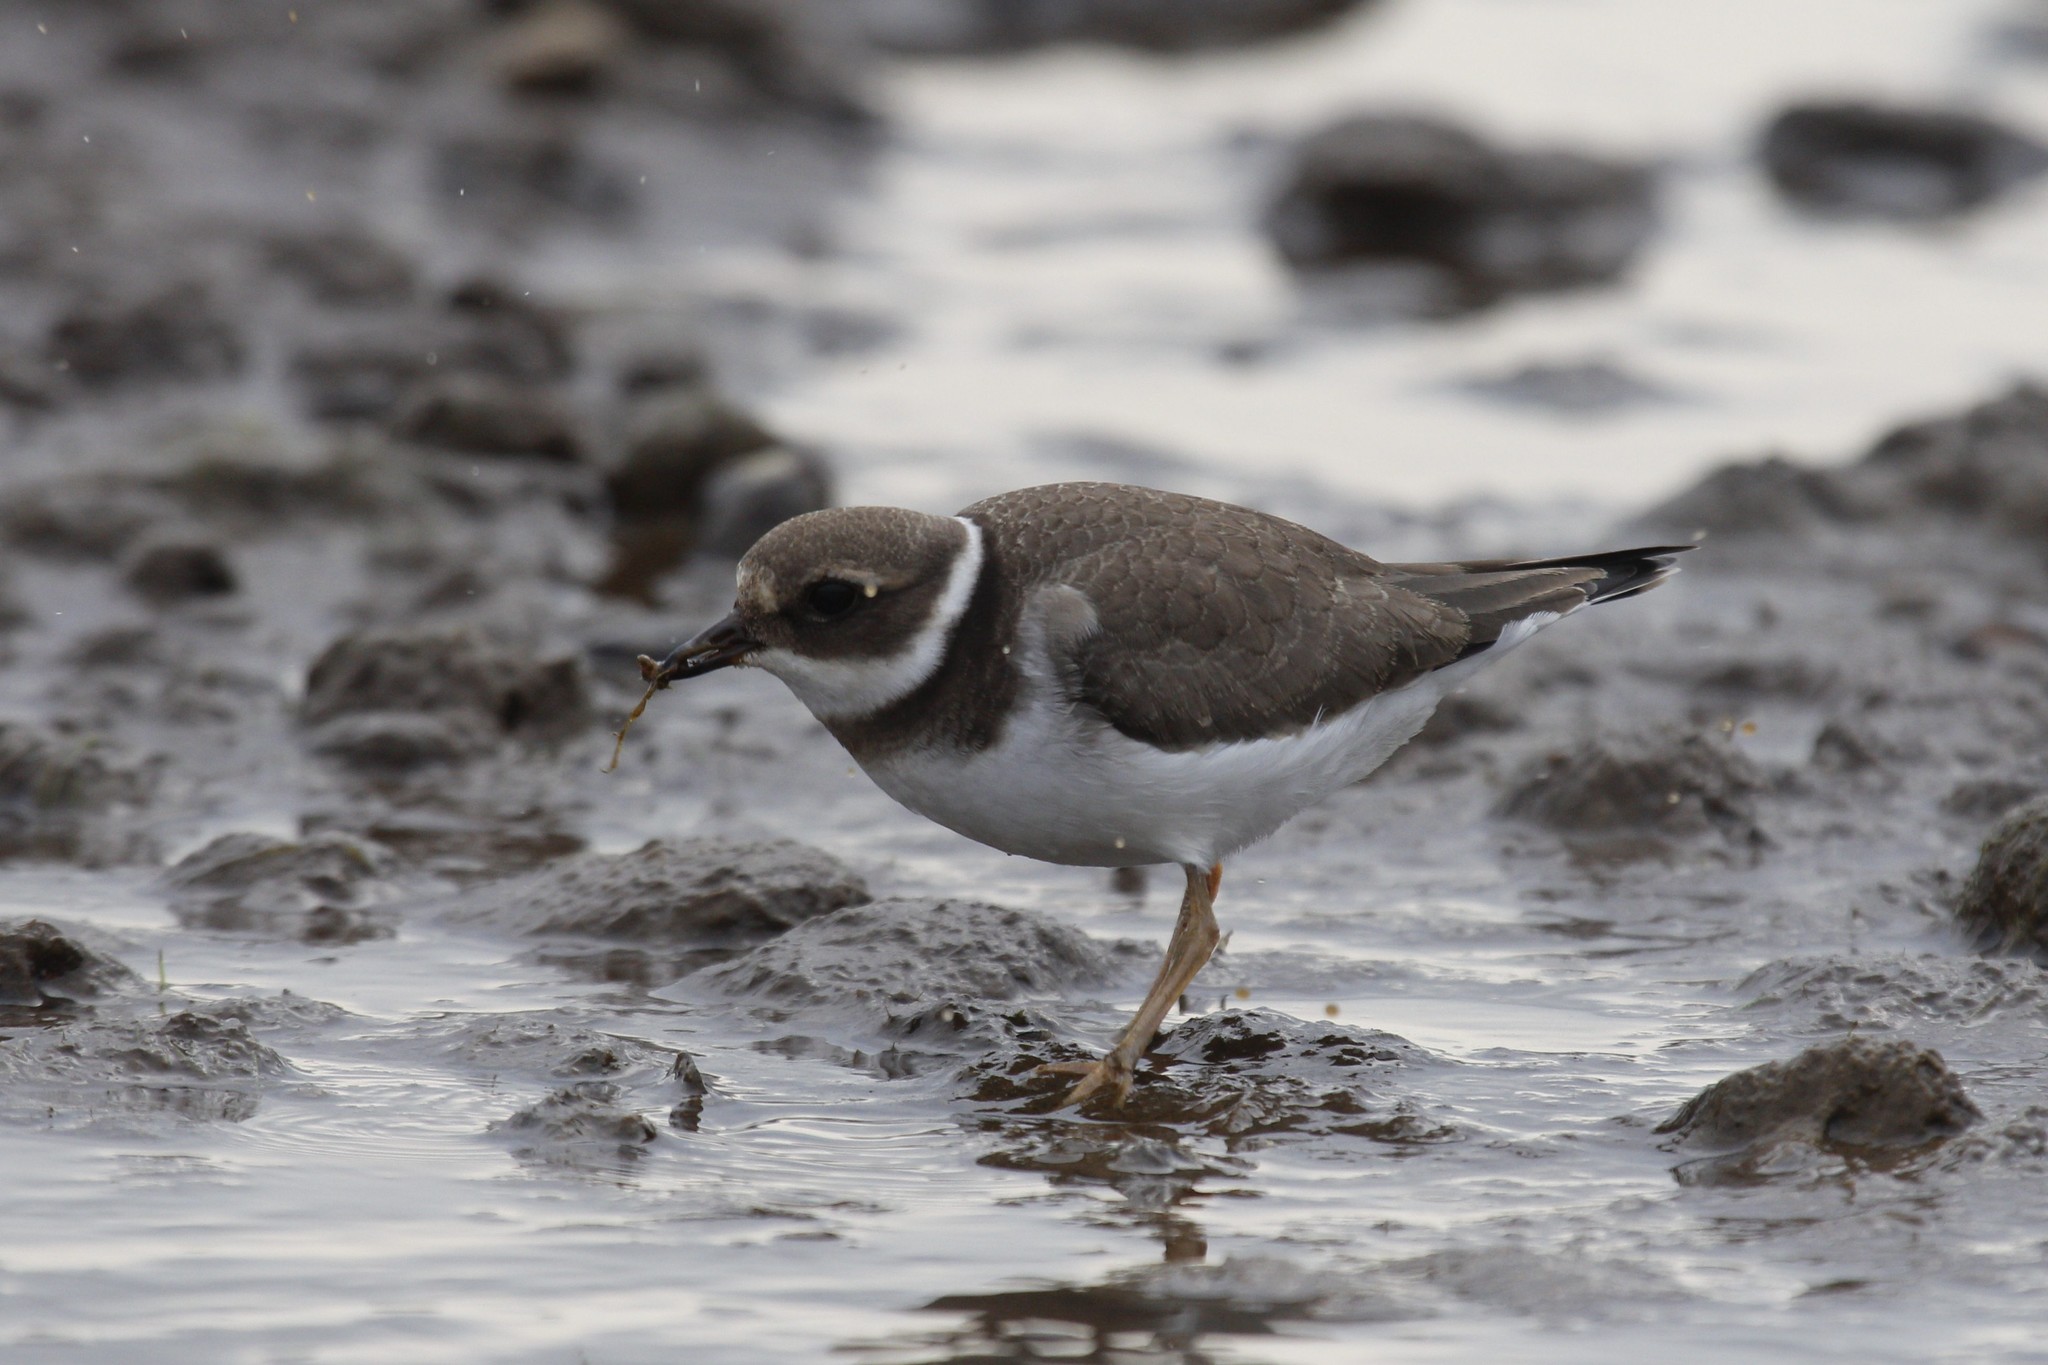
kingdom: Animalia
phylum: Chordata
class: Aves
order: Charadriiformes
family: Charadriidae
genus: Charadrius
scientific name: Charadrius hiaticula
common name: Common ringed plover
